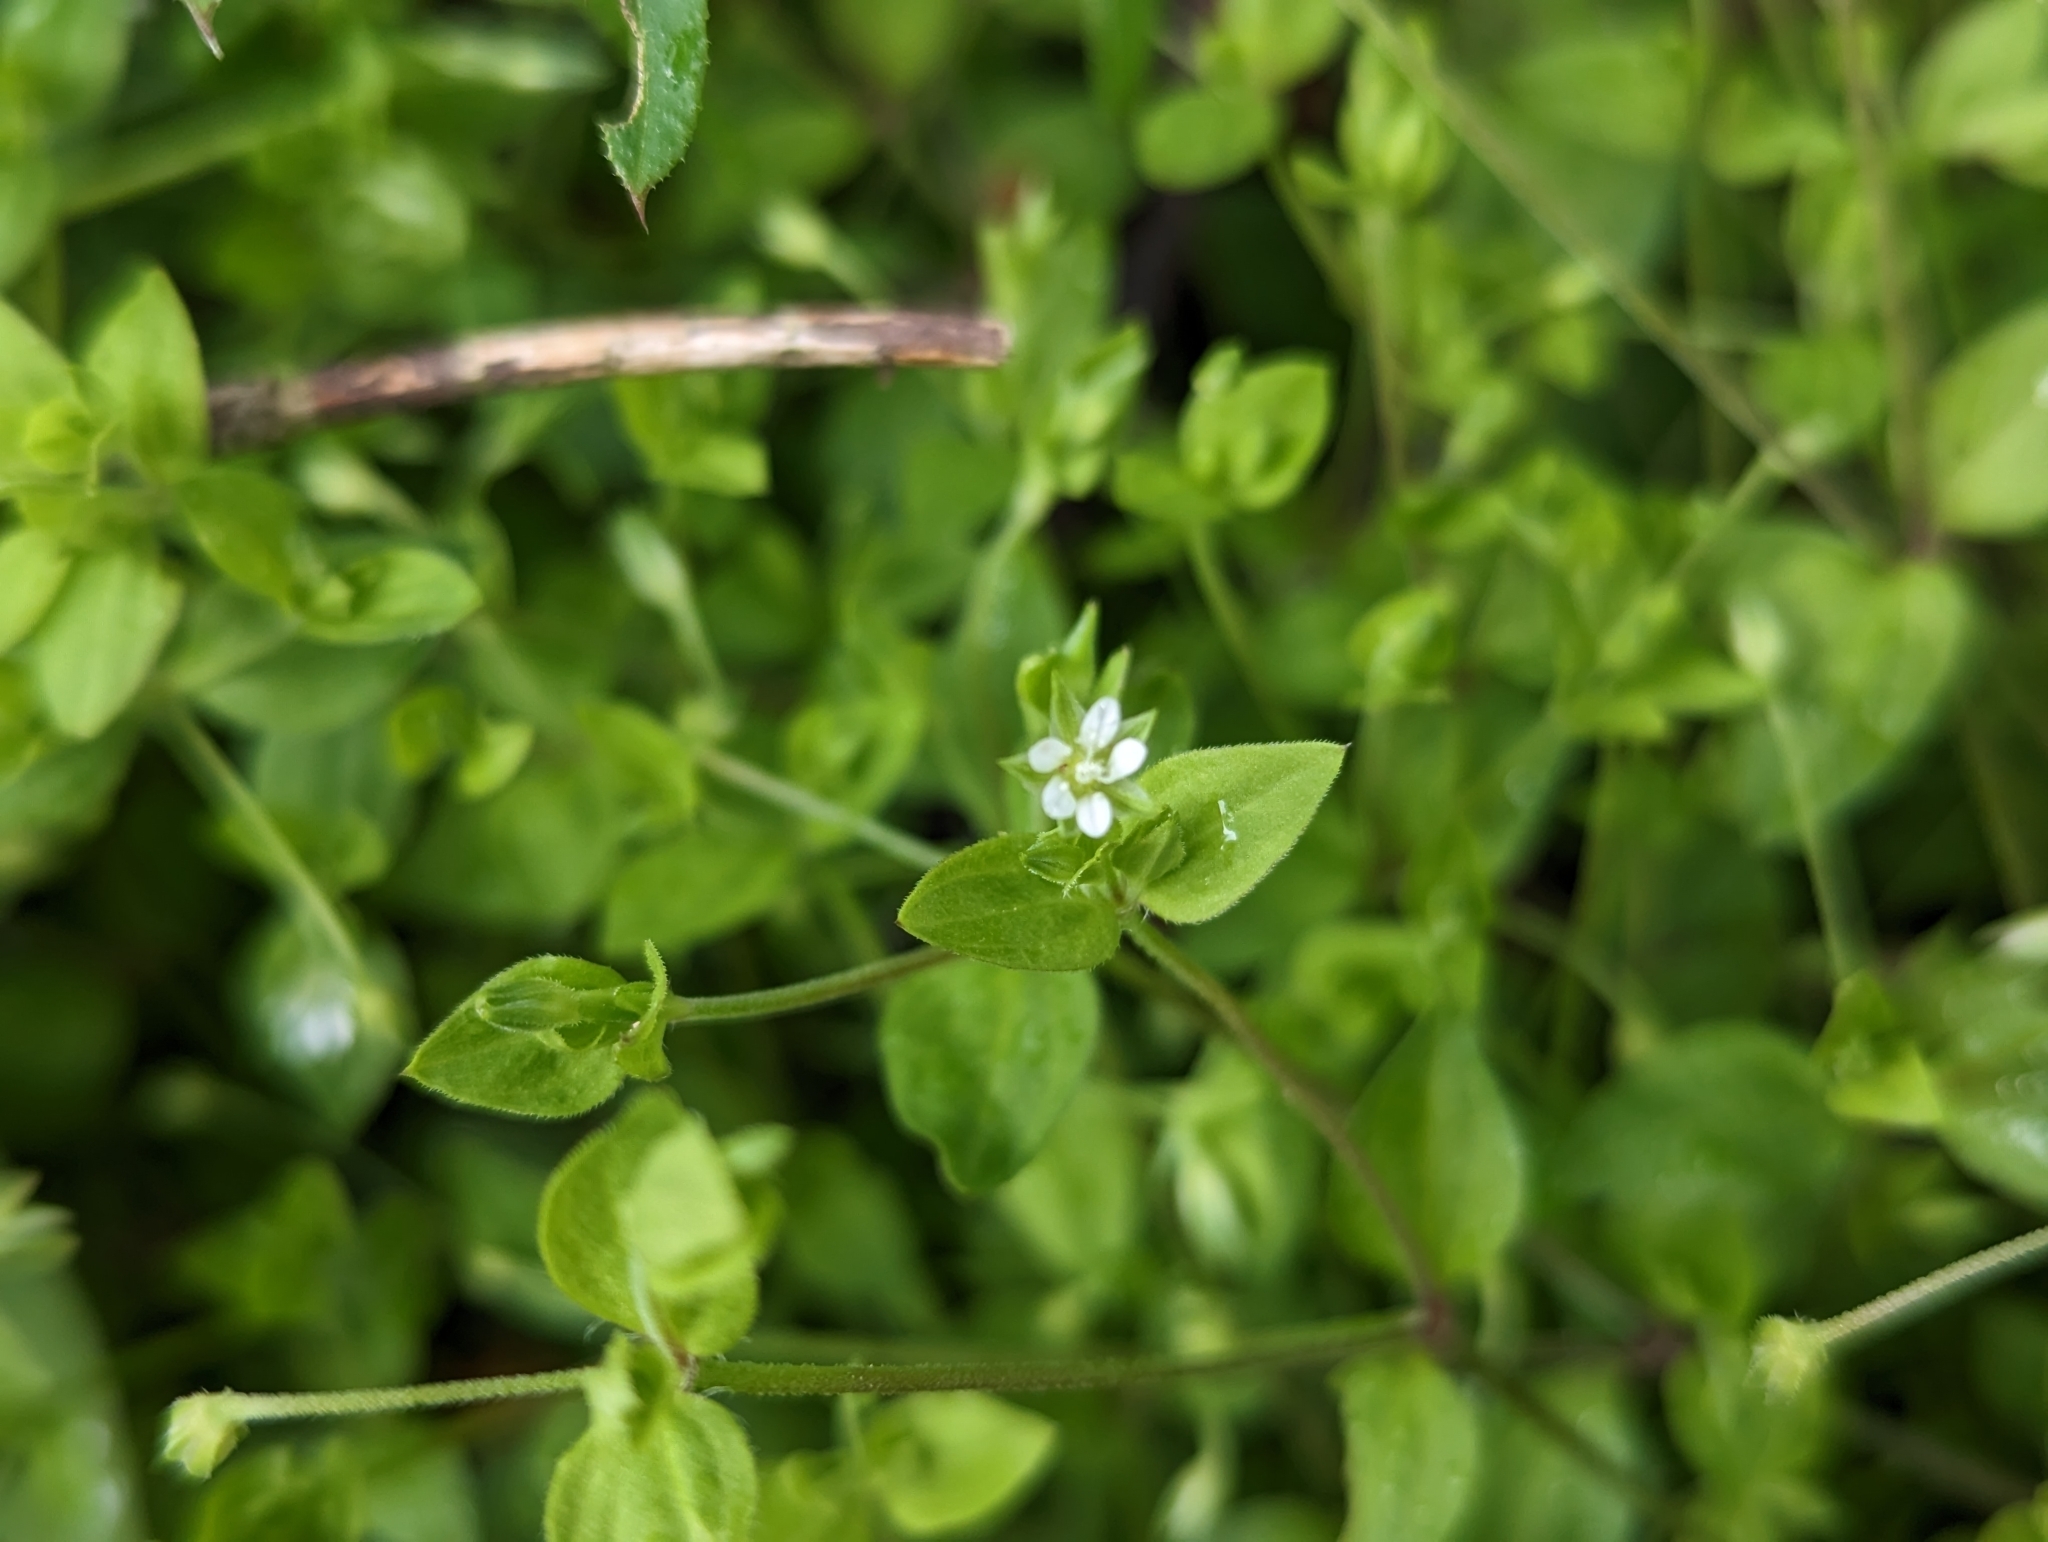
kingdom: Plantae
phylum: Tracheophyta
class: Magnoliopsida
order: Caryophyllales
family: Caryophyllaceae
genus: Moehringia
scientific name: Moehringia trinervia
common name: Three-nerved sandwort
